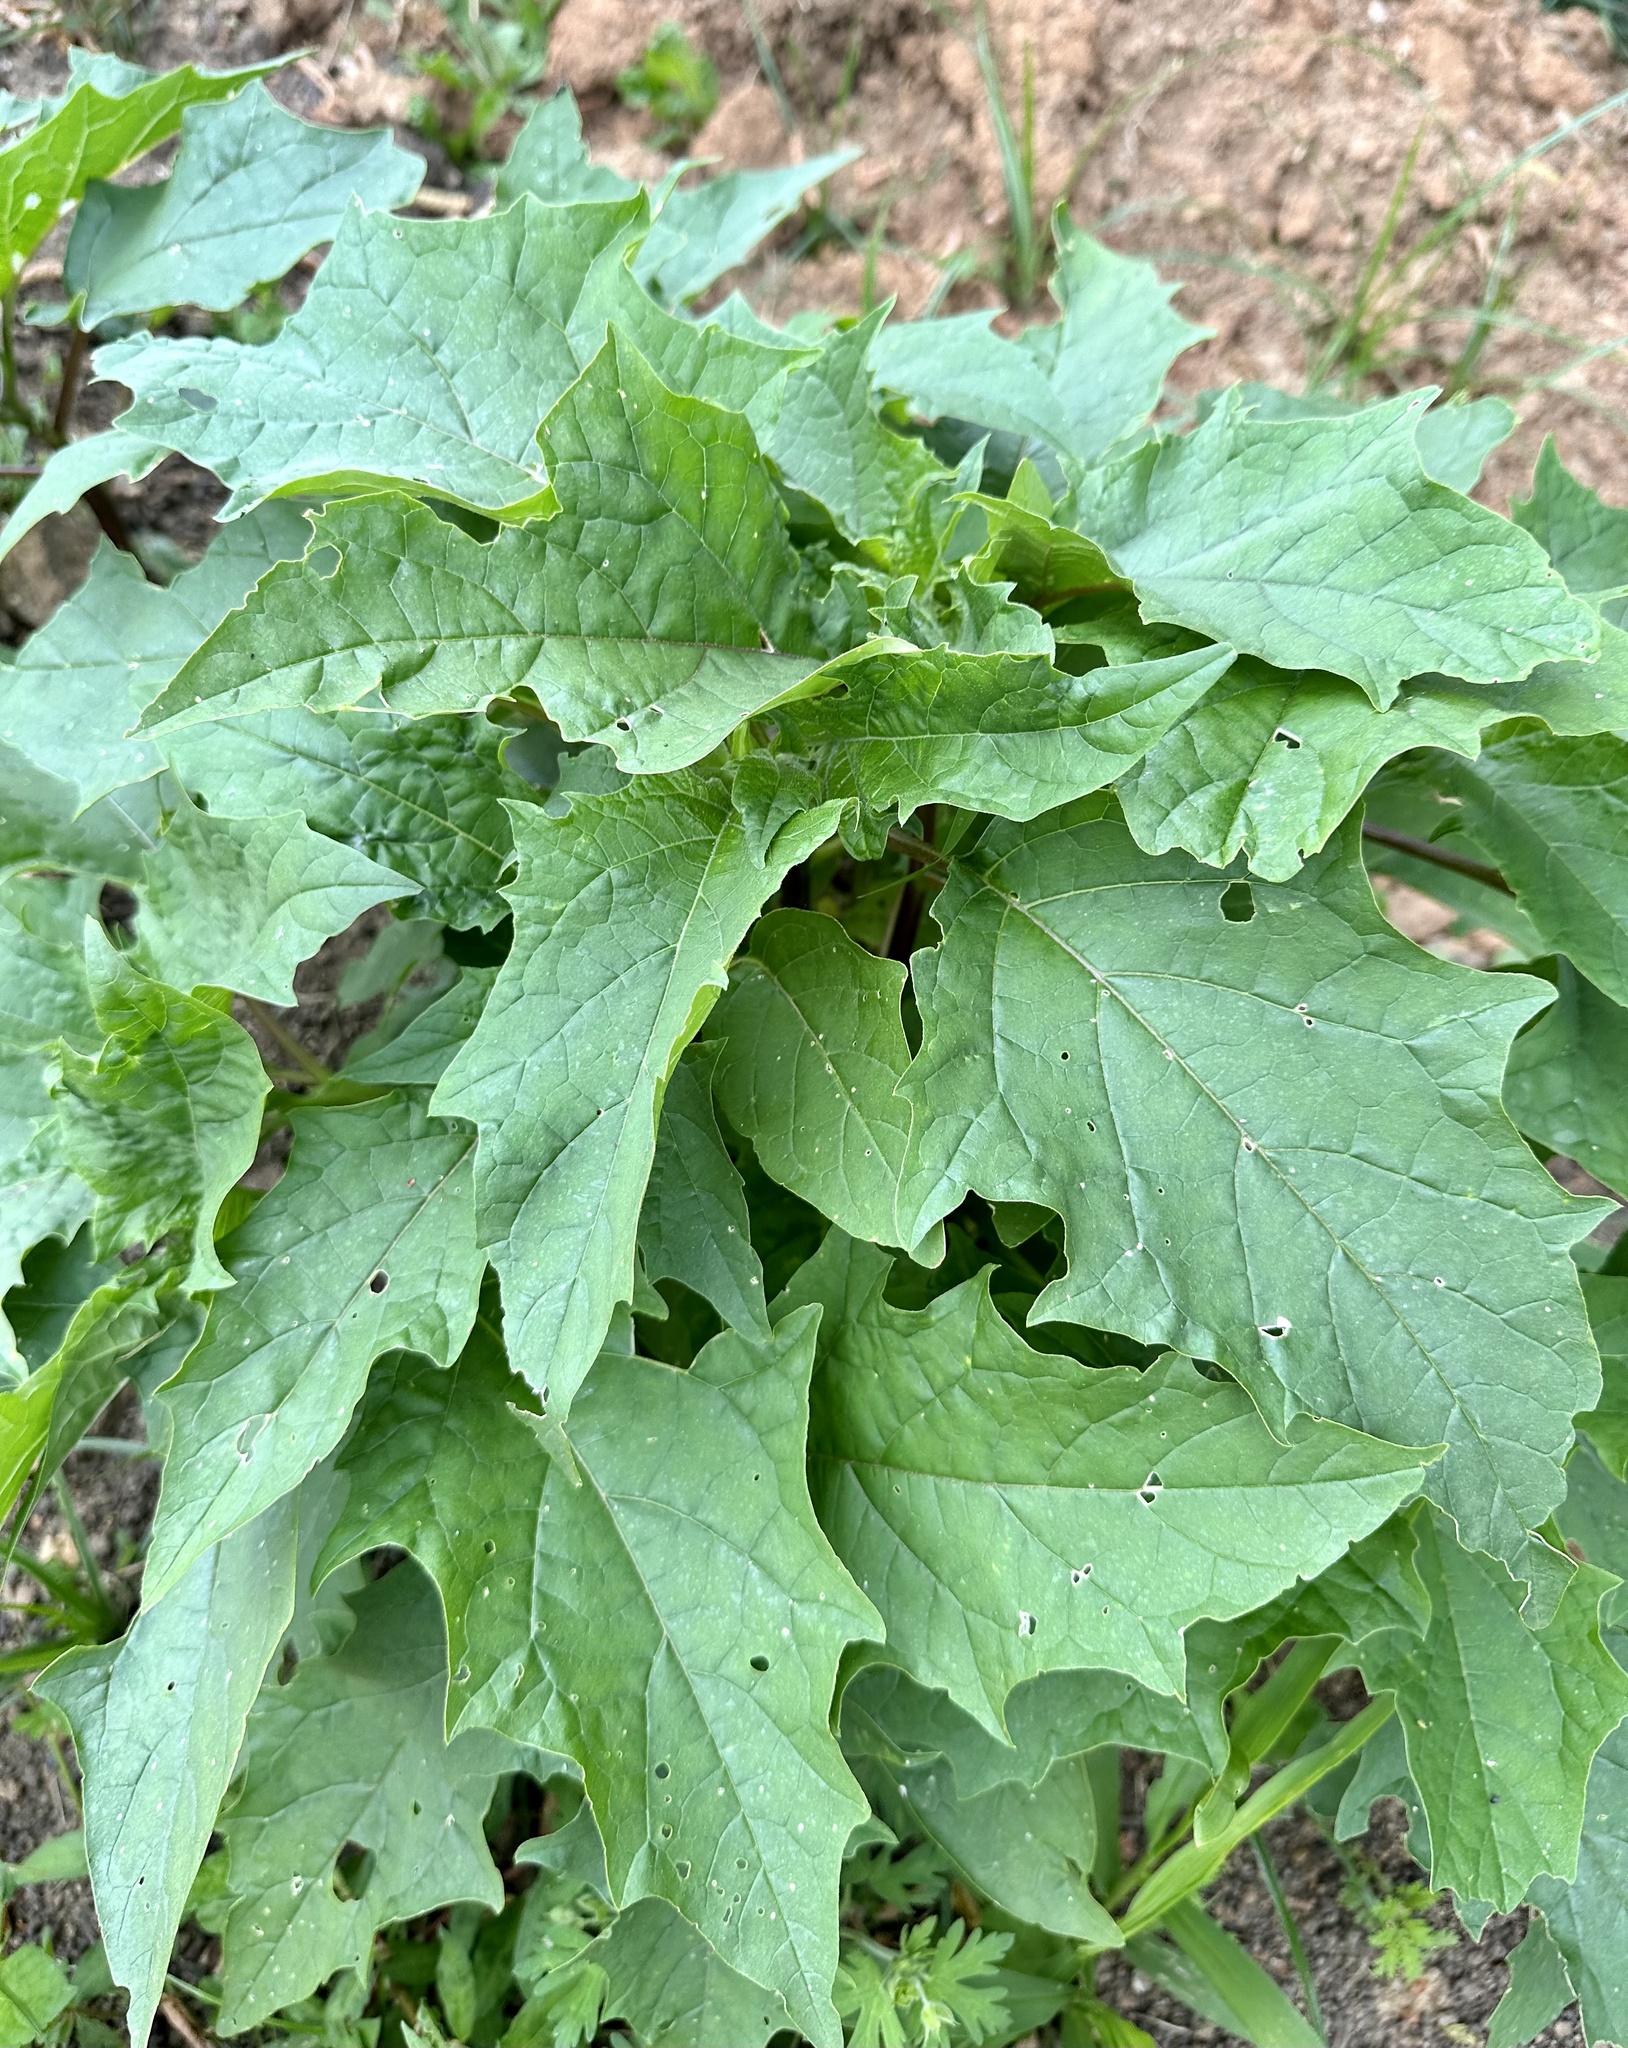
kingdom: Plantae
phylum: Tracheophyta
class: Magnoliopsida
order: Solanales
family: Solanaceae
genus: Datura
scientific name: Datura stramonium
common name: Thorn-apple
